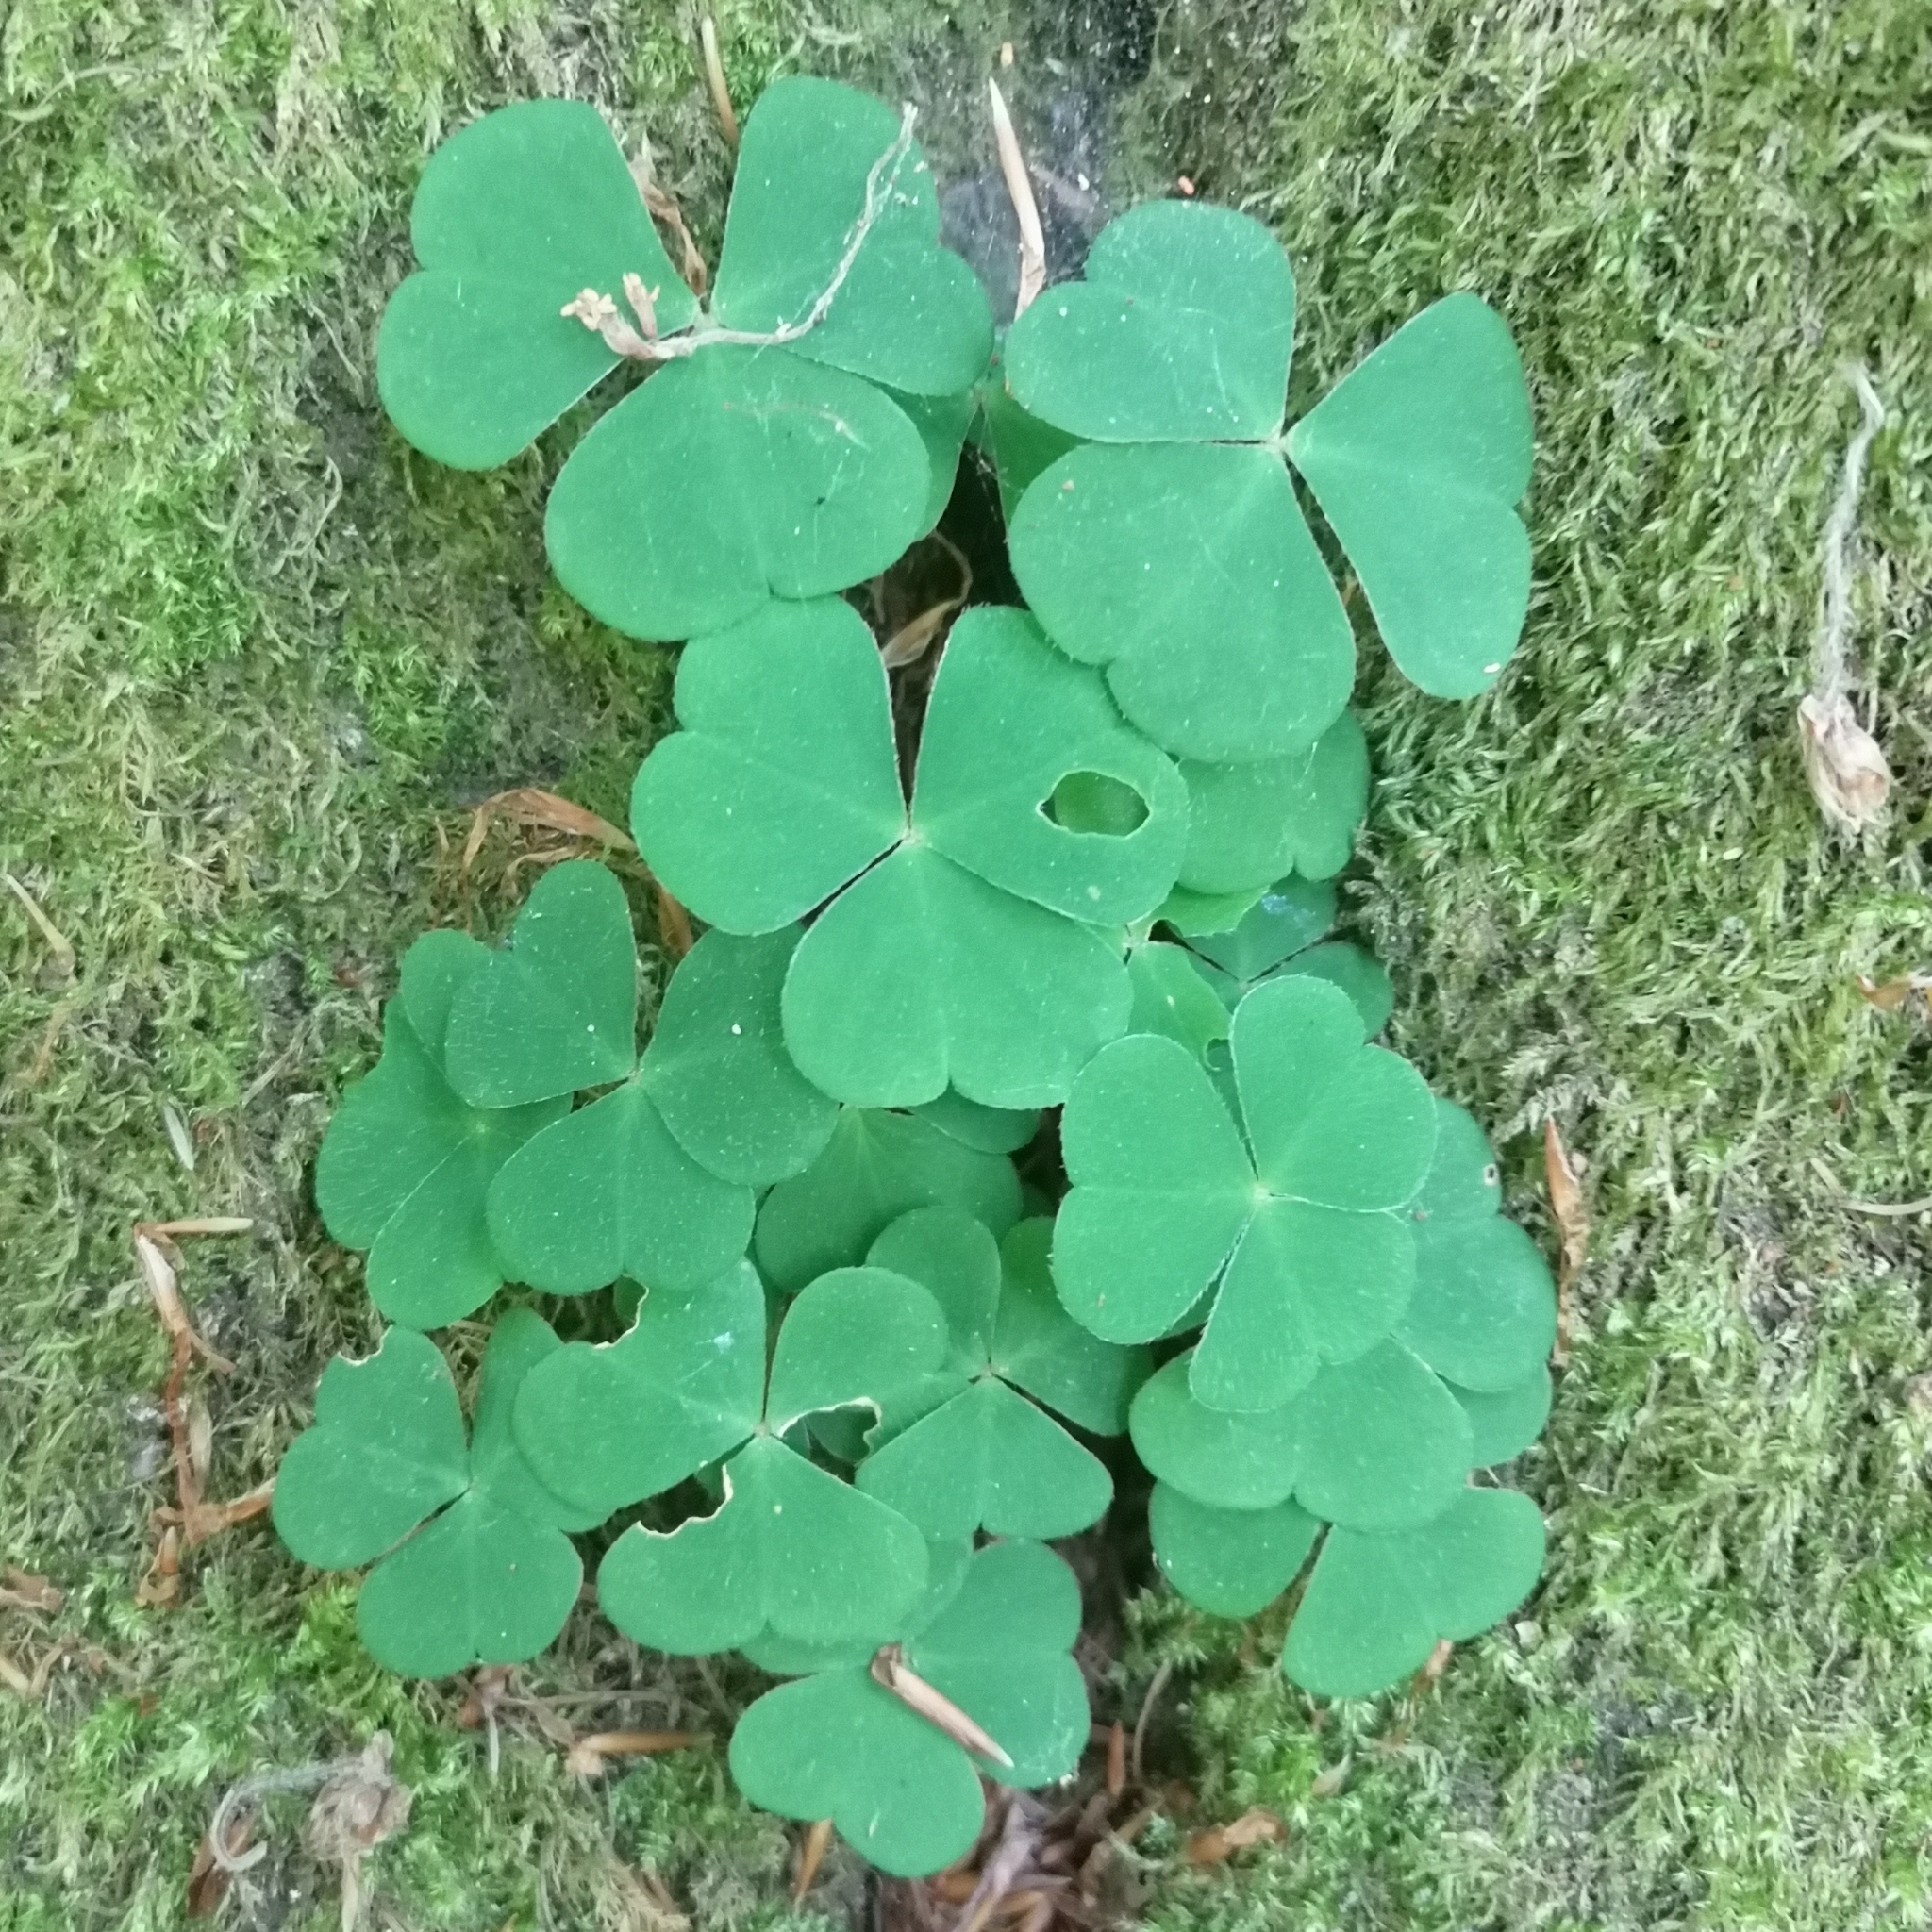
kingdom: Plantae
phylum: Tracheophyta
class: Magnoliopsida
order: Oxalidales
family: Oxalidaceae
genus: Oxalis
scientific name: Oxalis acetosella
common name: Wood-sorrel
